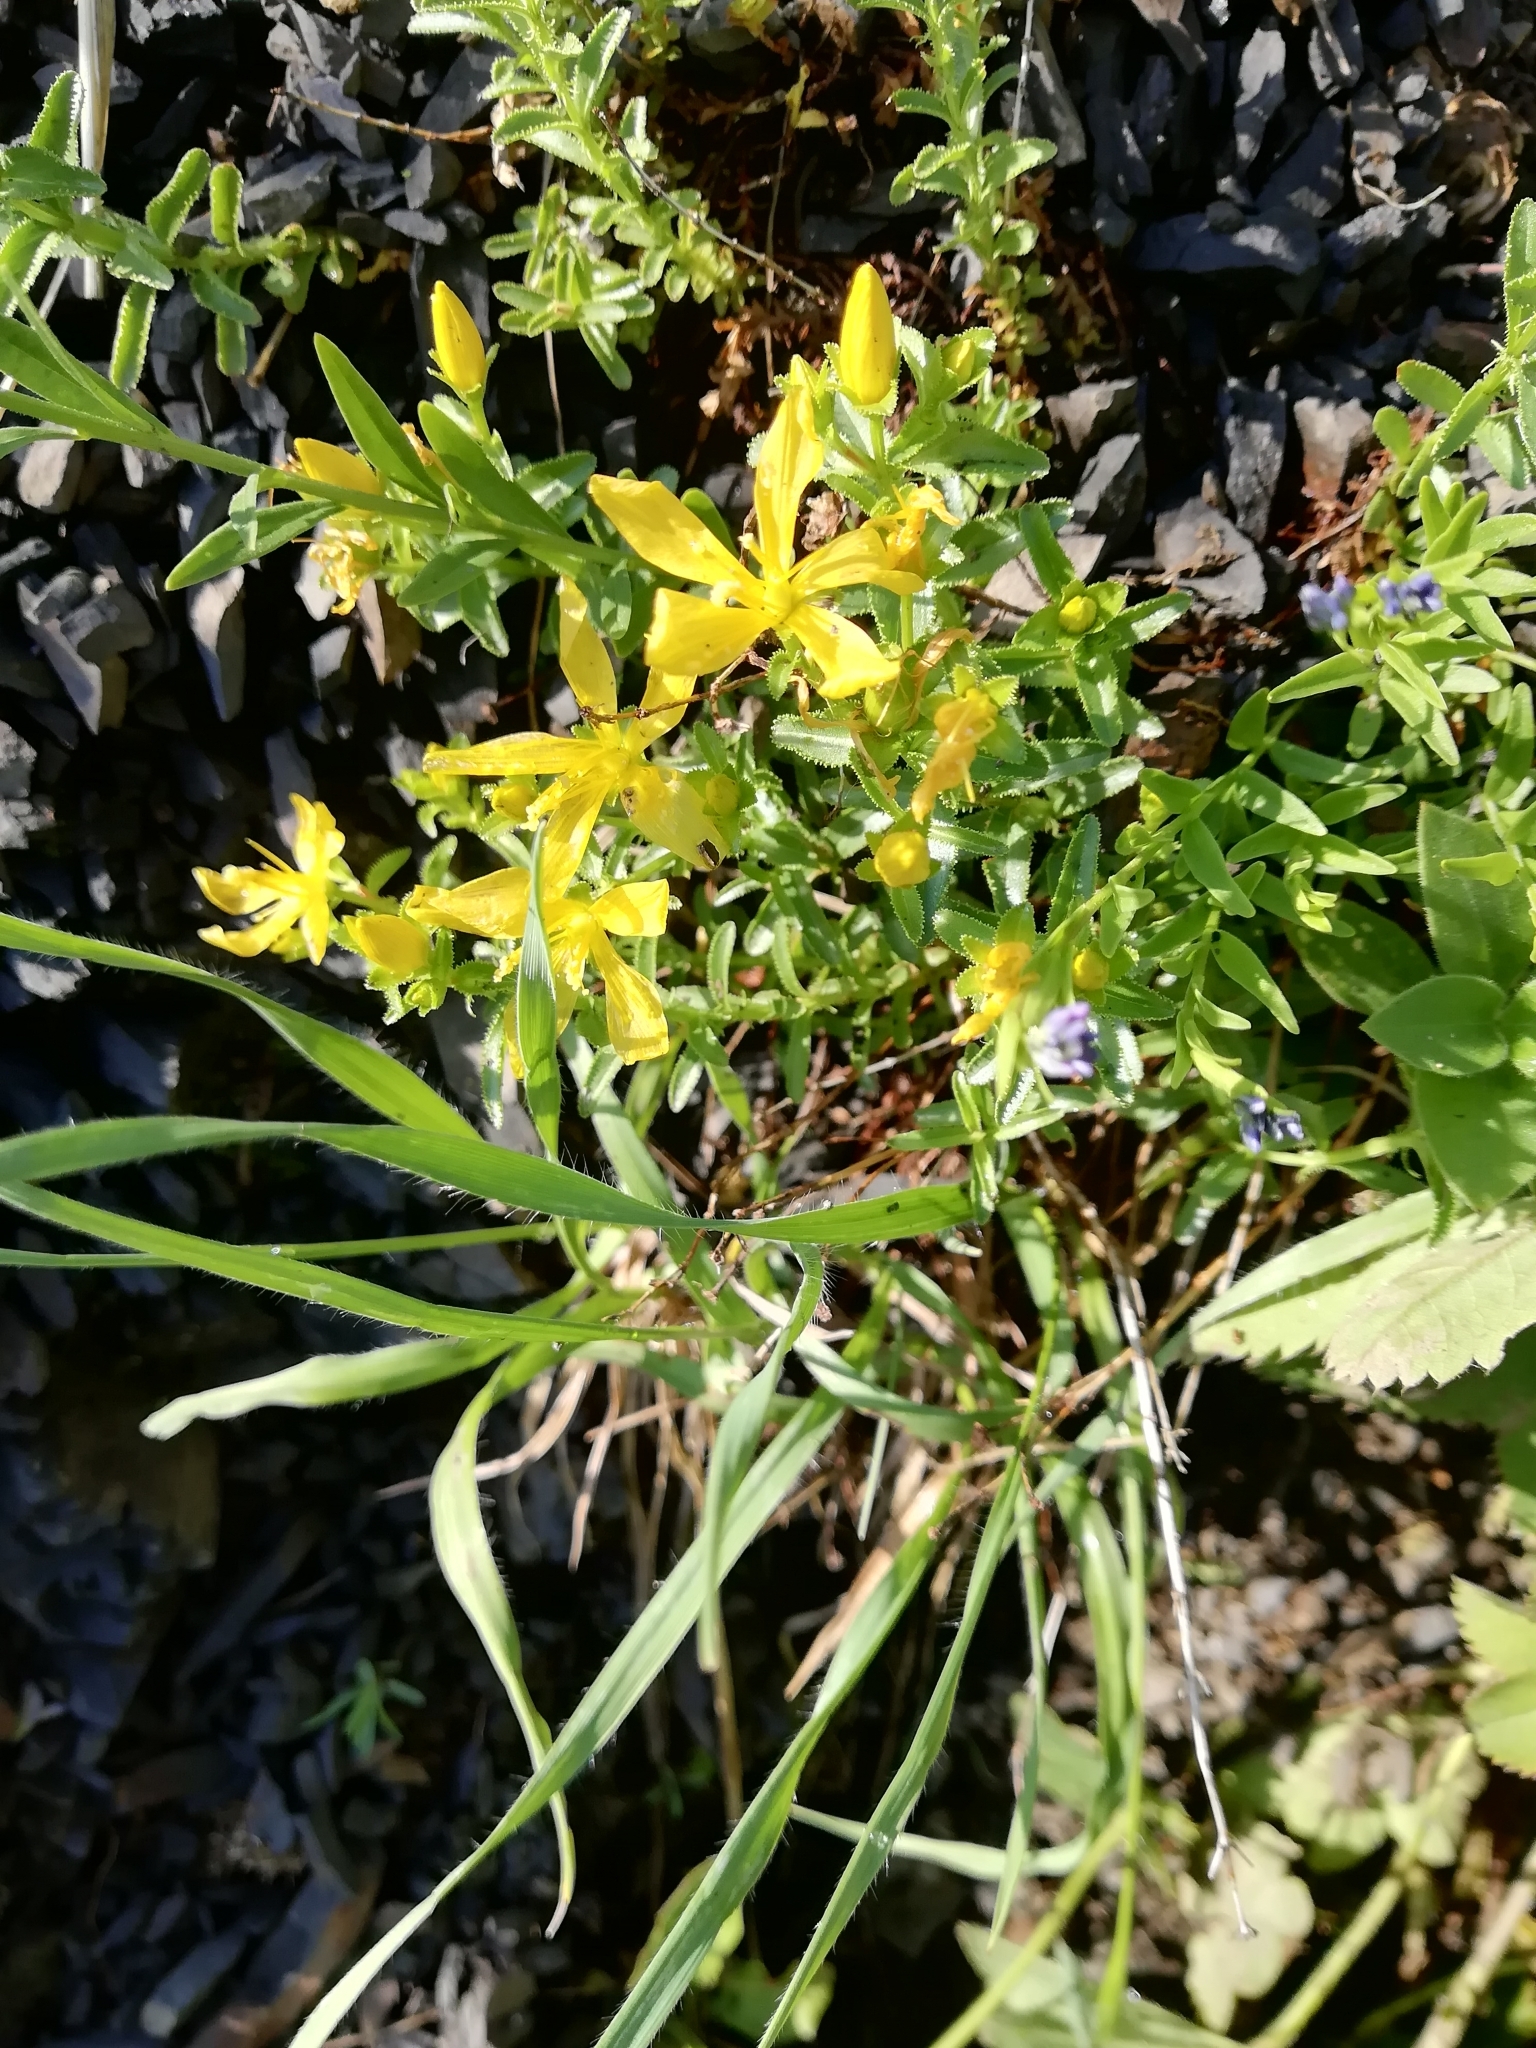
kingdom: Plantae
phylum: Tracheophyta
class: Magnoliopsida
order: Malpighiales
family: Hypericaceae
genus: Hypericum
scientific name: Hypericum orientale
